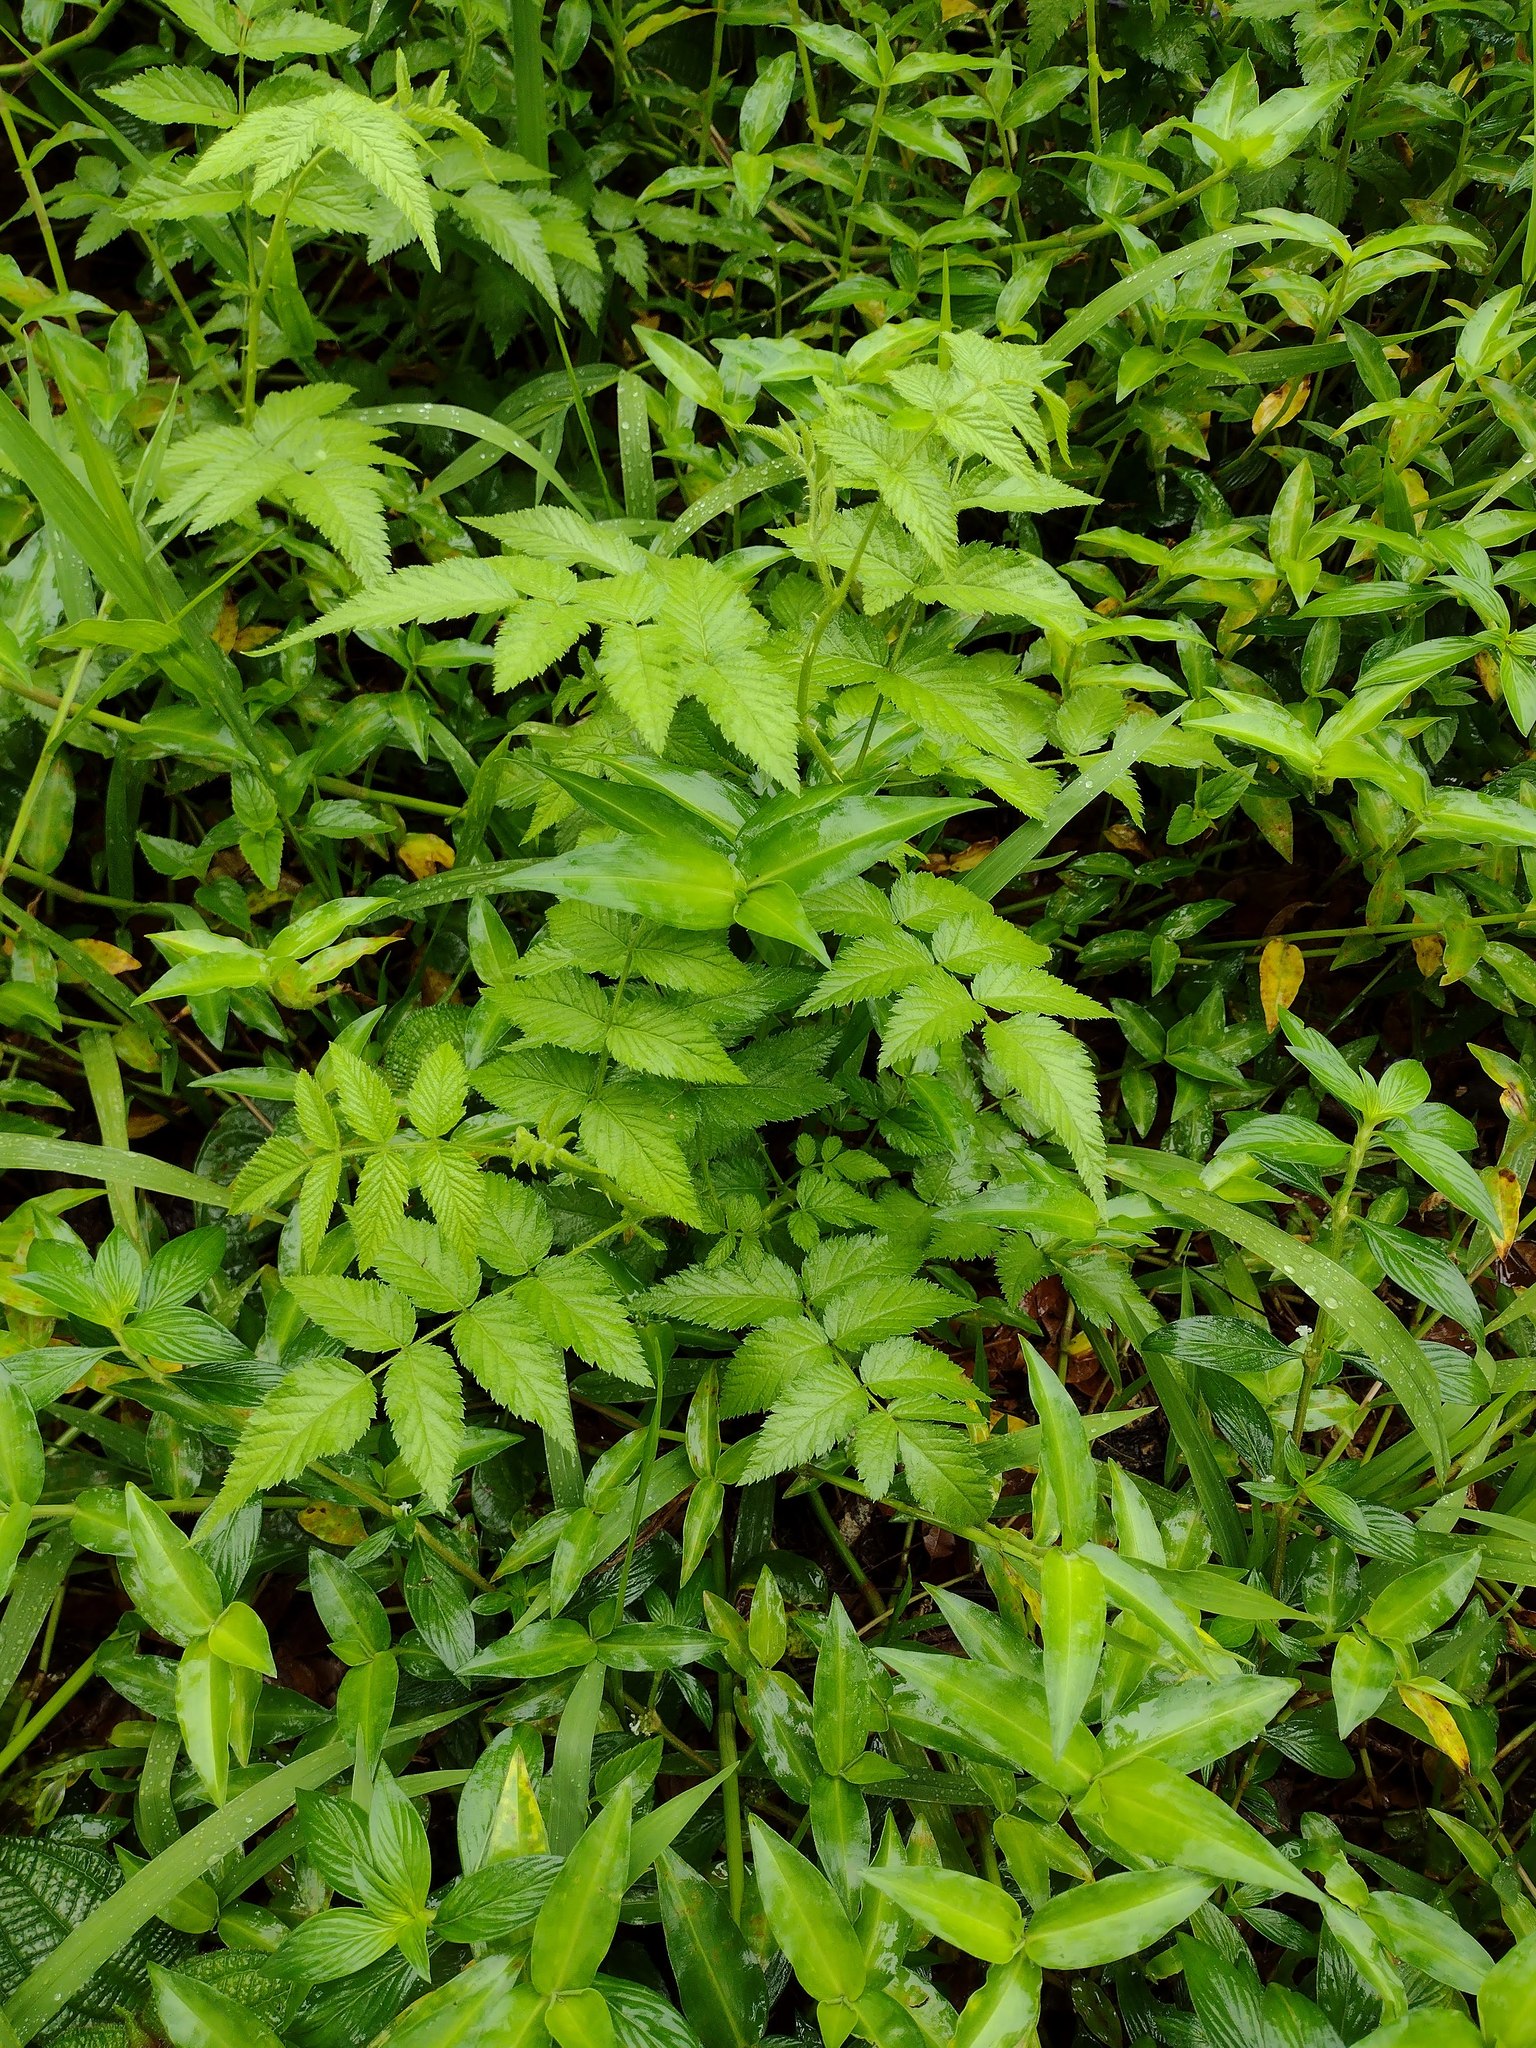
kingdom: Plantae
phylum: Tracheophyta
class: Magnoliopsida
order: Rosales
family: Rosaceae
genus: Rubus
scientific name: Rubus rosifolius
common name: Roseleaf raspberry
